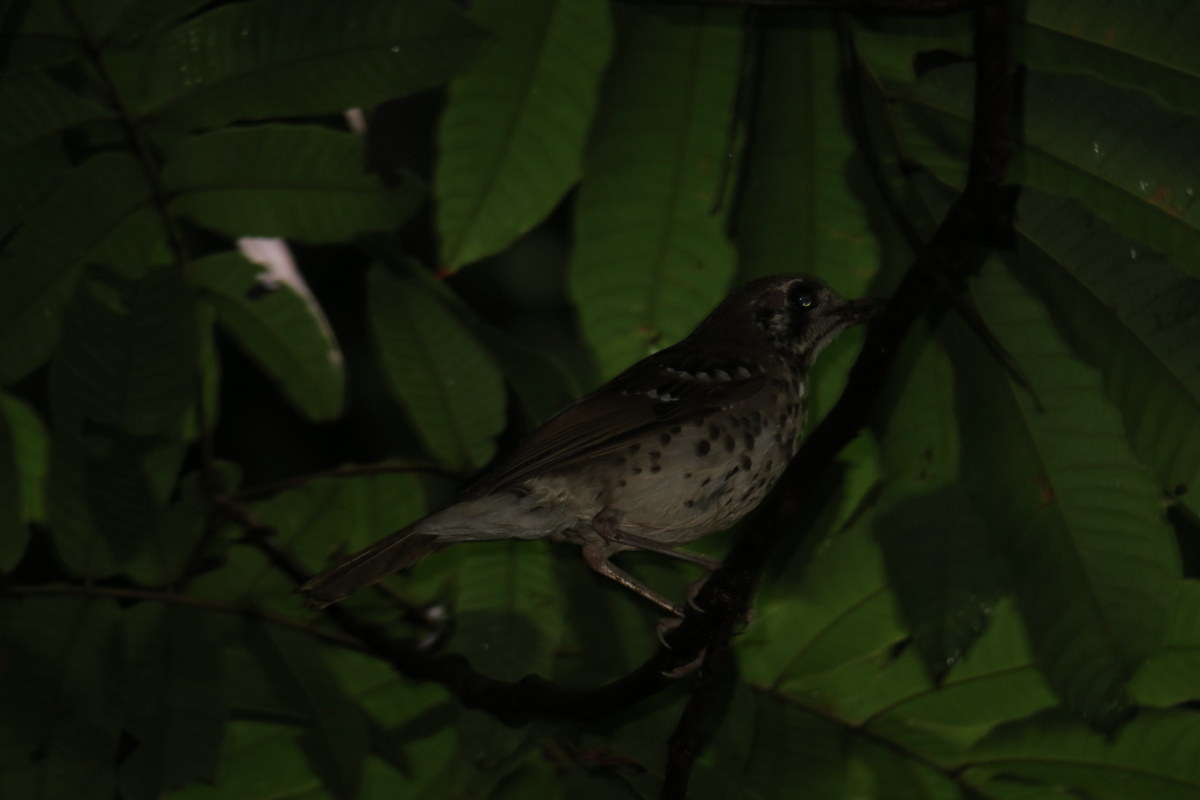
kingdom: Animalia
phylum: Chordata
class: Aves
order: Passeriformes
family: Turdidae
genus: Geokichla
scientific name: Geokichla spiloptera
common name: Spot-winged thrush
